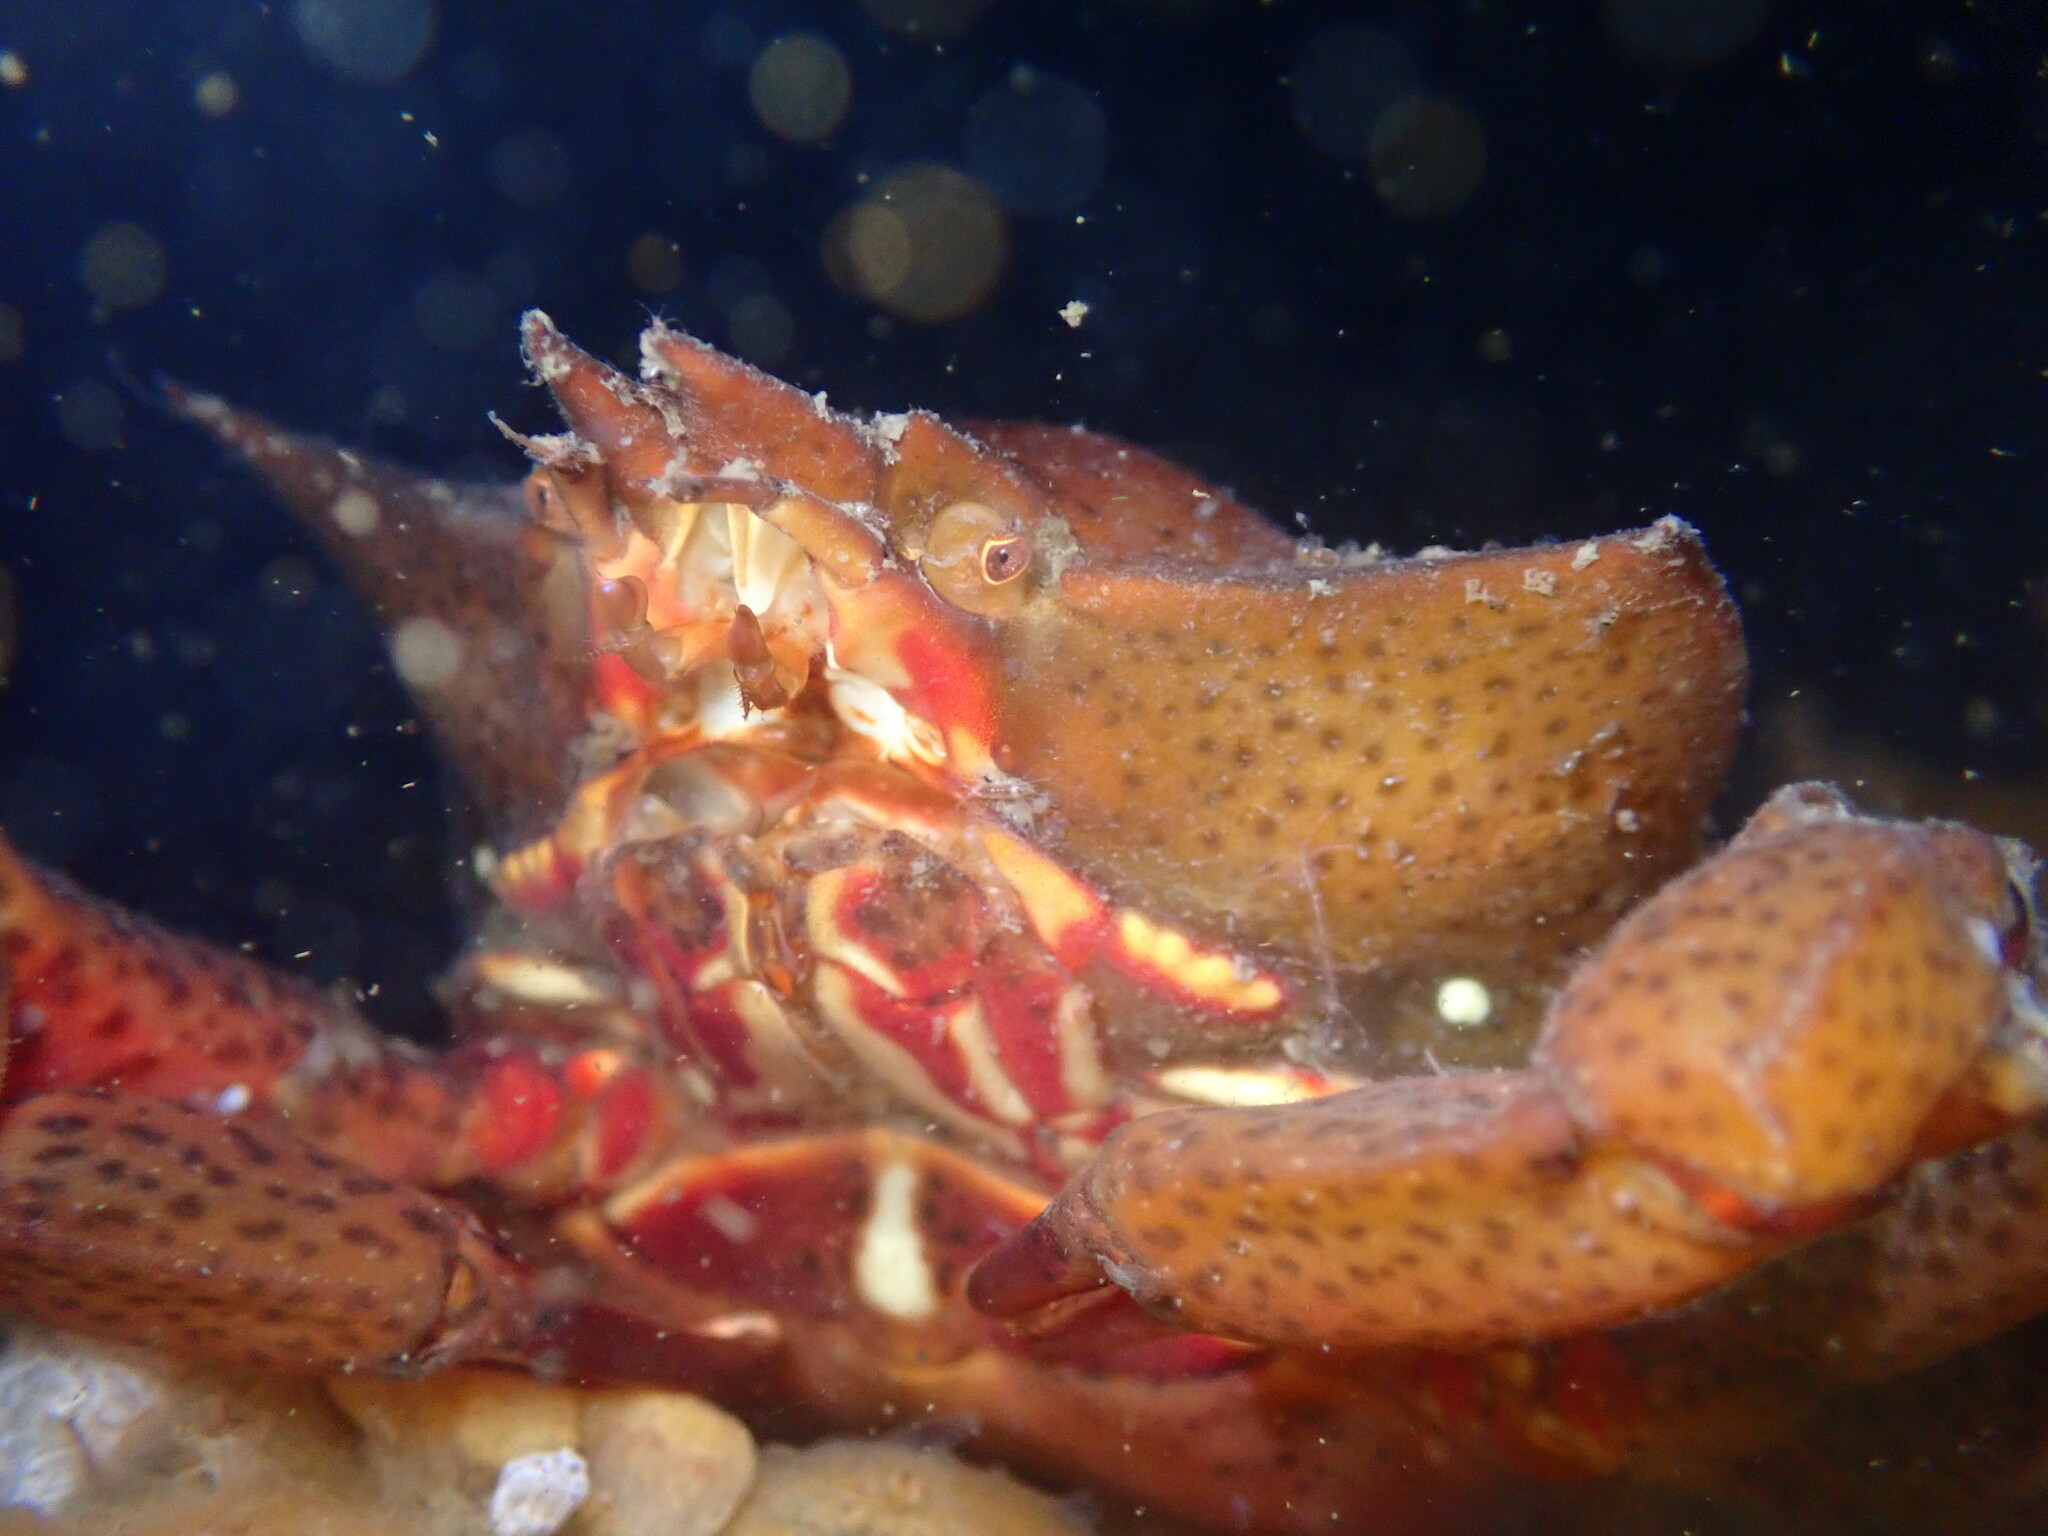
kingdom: Animalia
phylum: Arthropoda
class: Malacostraca
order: Decapoda
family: Epialtidae
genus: Pugettia
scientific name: Pugettia producta
